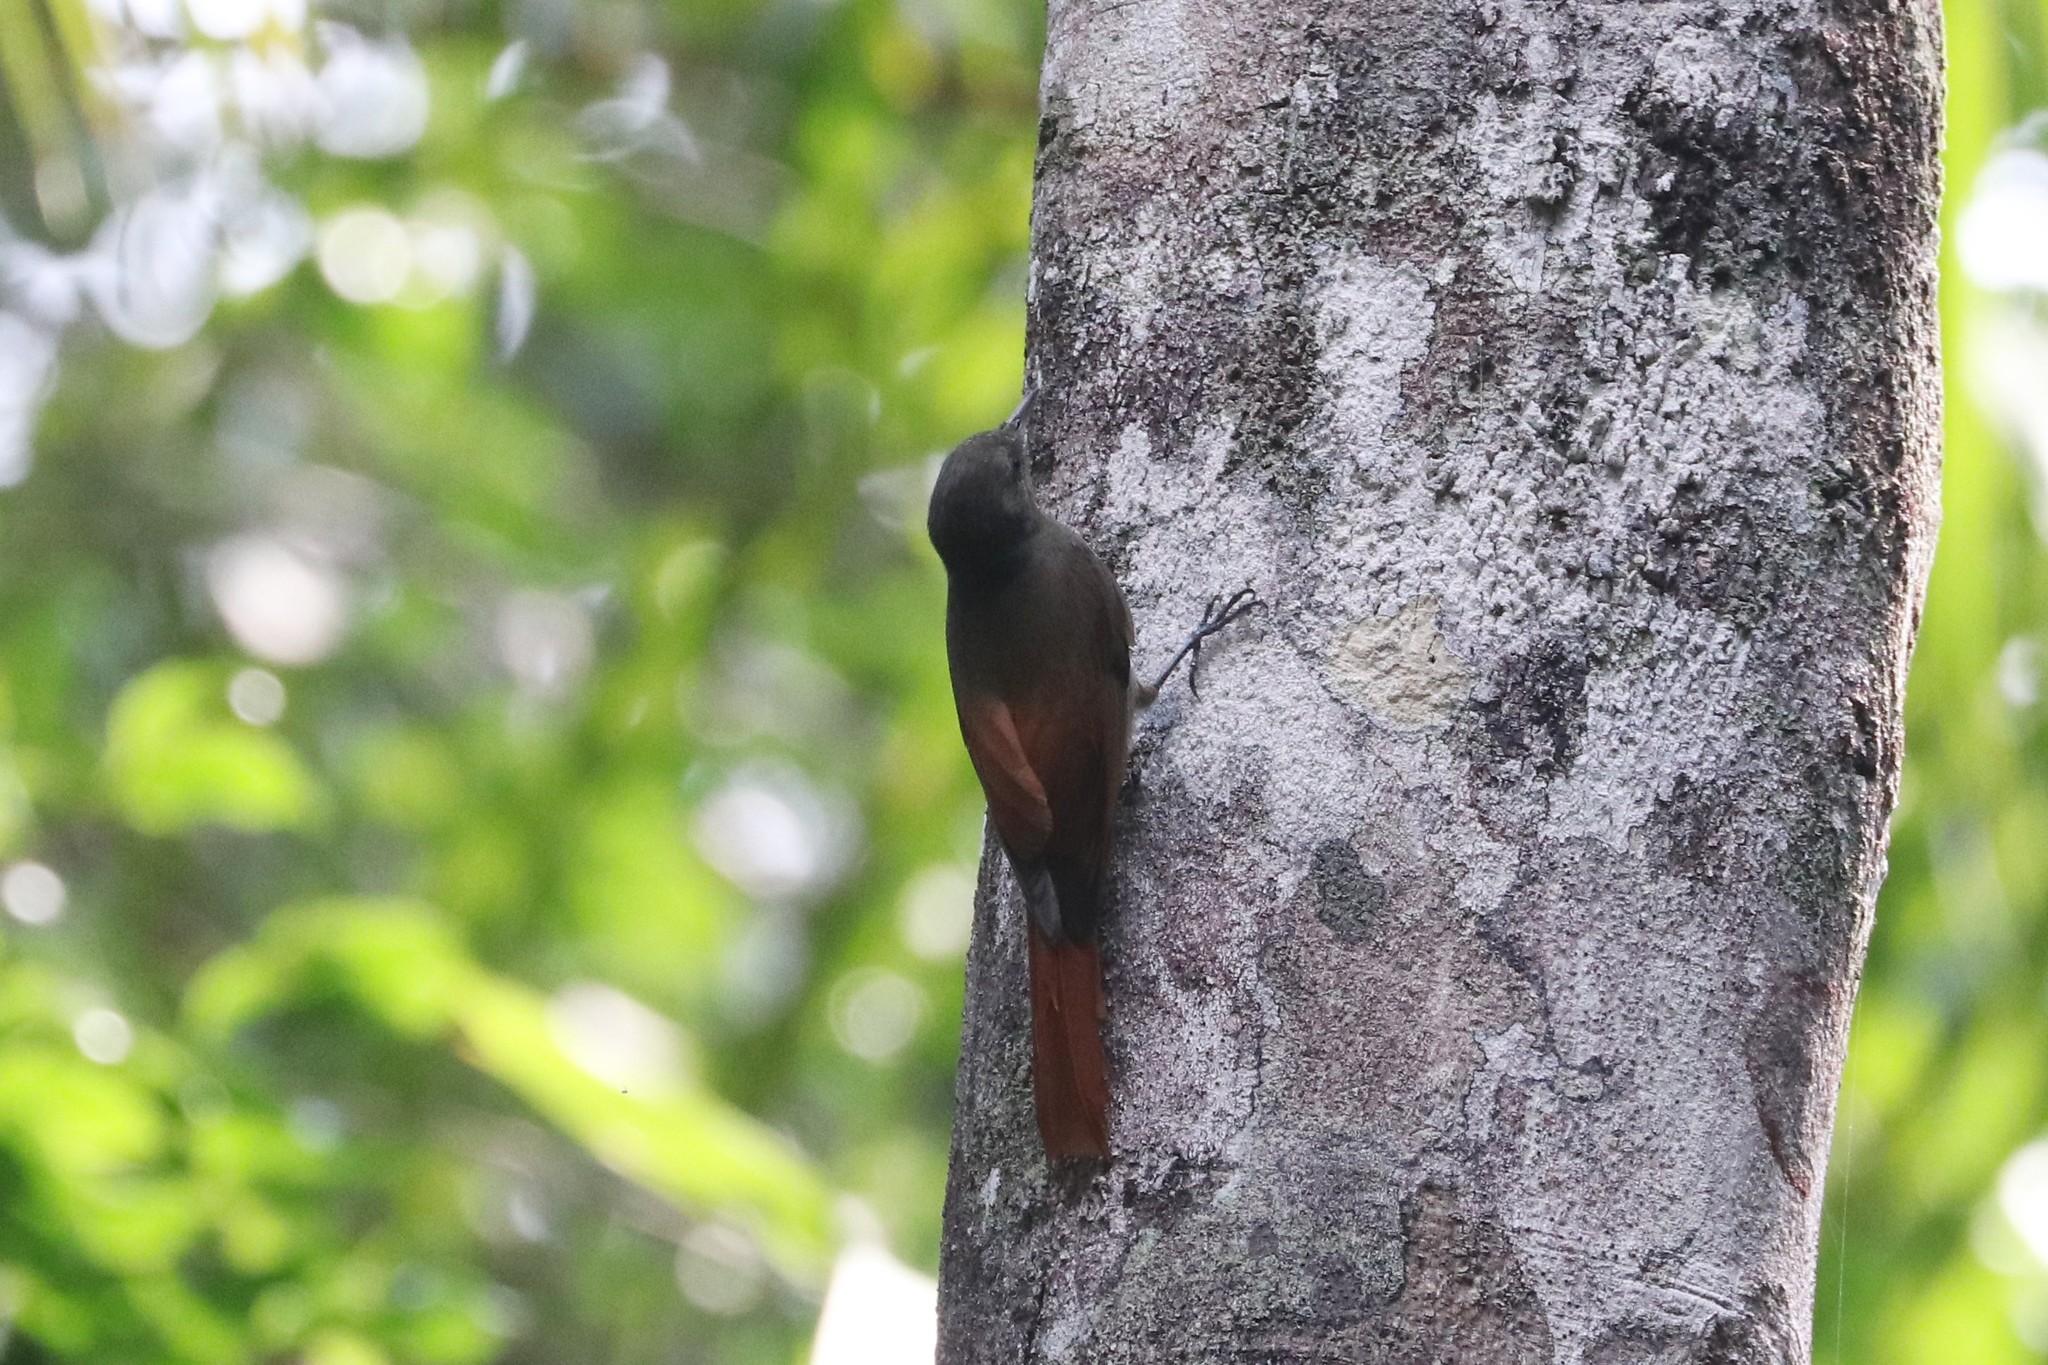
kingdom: Animalia
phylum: Chordata
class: Aves
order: Passeriformes
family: Furnariidae
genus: Sittasomus
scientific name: Sittasomus griseicapillus
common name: Olivaceous woodcreeper
